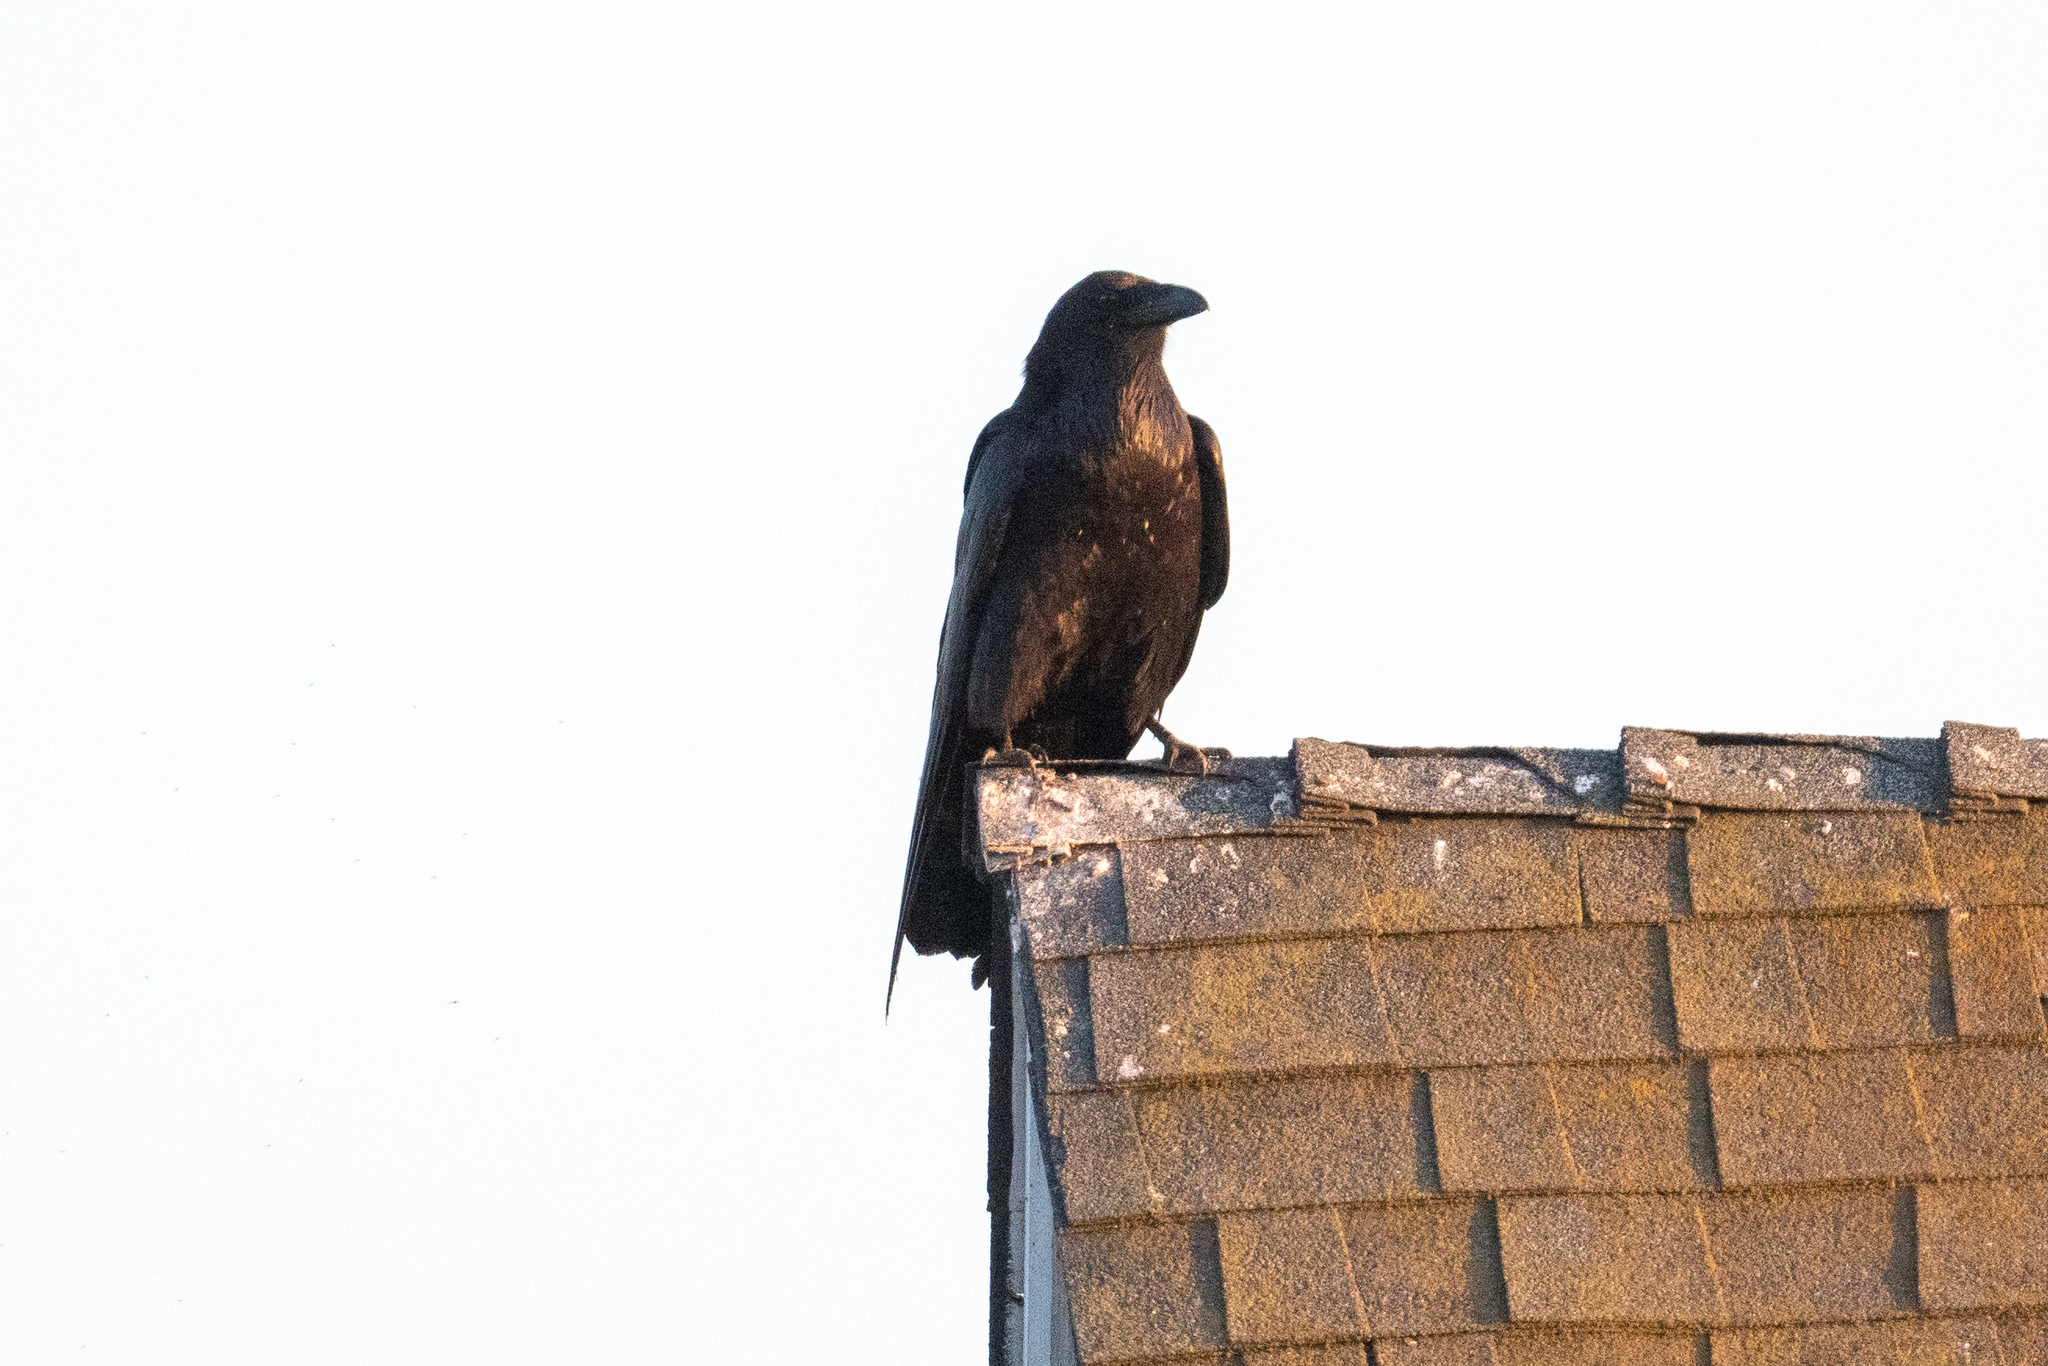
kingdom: Animalia
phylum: Chordata
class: Aves
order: Passeriformes
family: Corvidae
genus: Corvus
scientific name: Corvus corax
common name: Common raven
